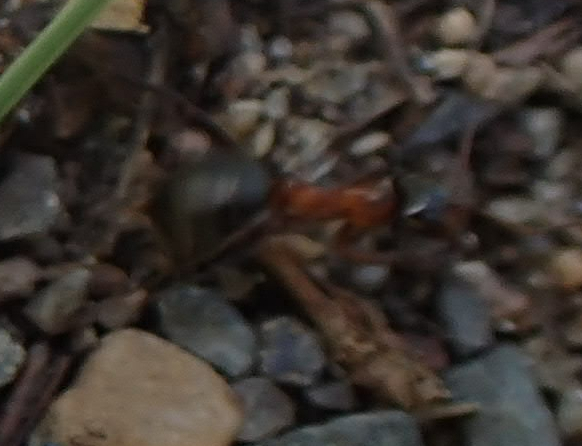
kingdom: Animalia
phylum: Arthropoda
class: Insecta
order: Hymenoptera
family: Formicidae
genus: Formica
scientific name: Formica ulkei
